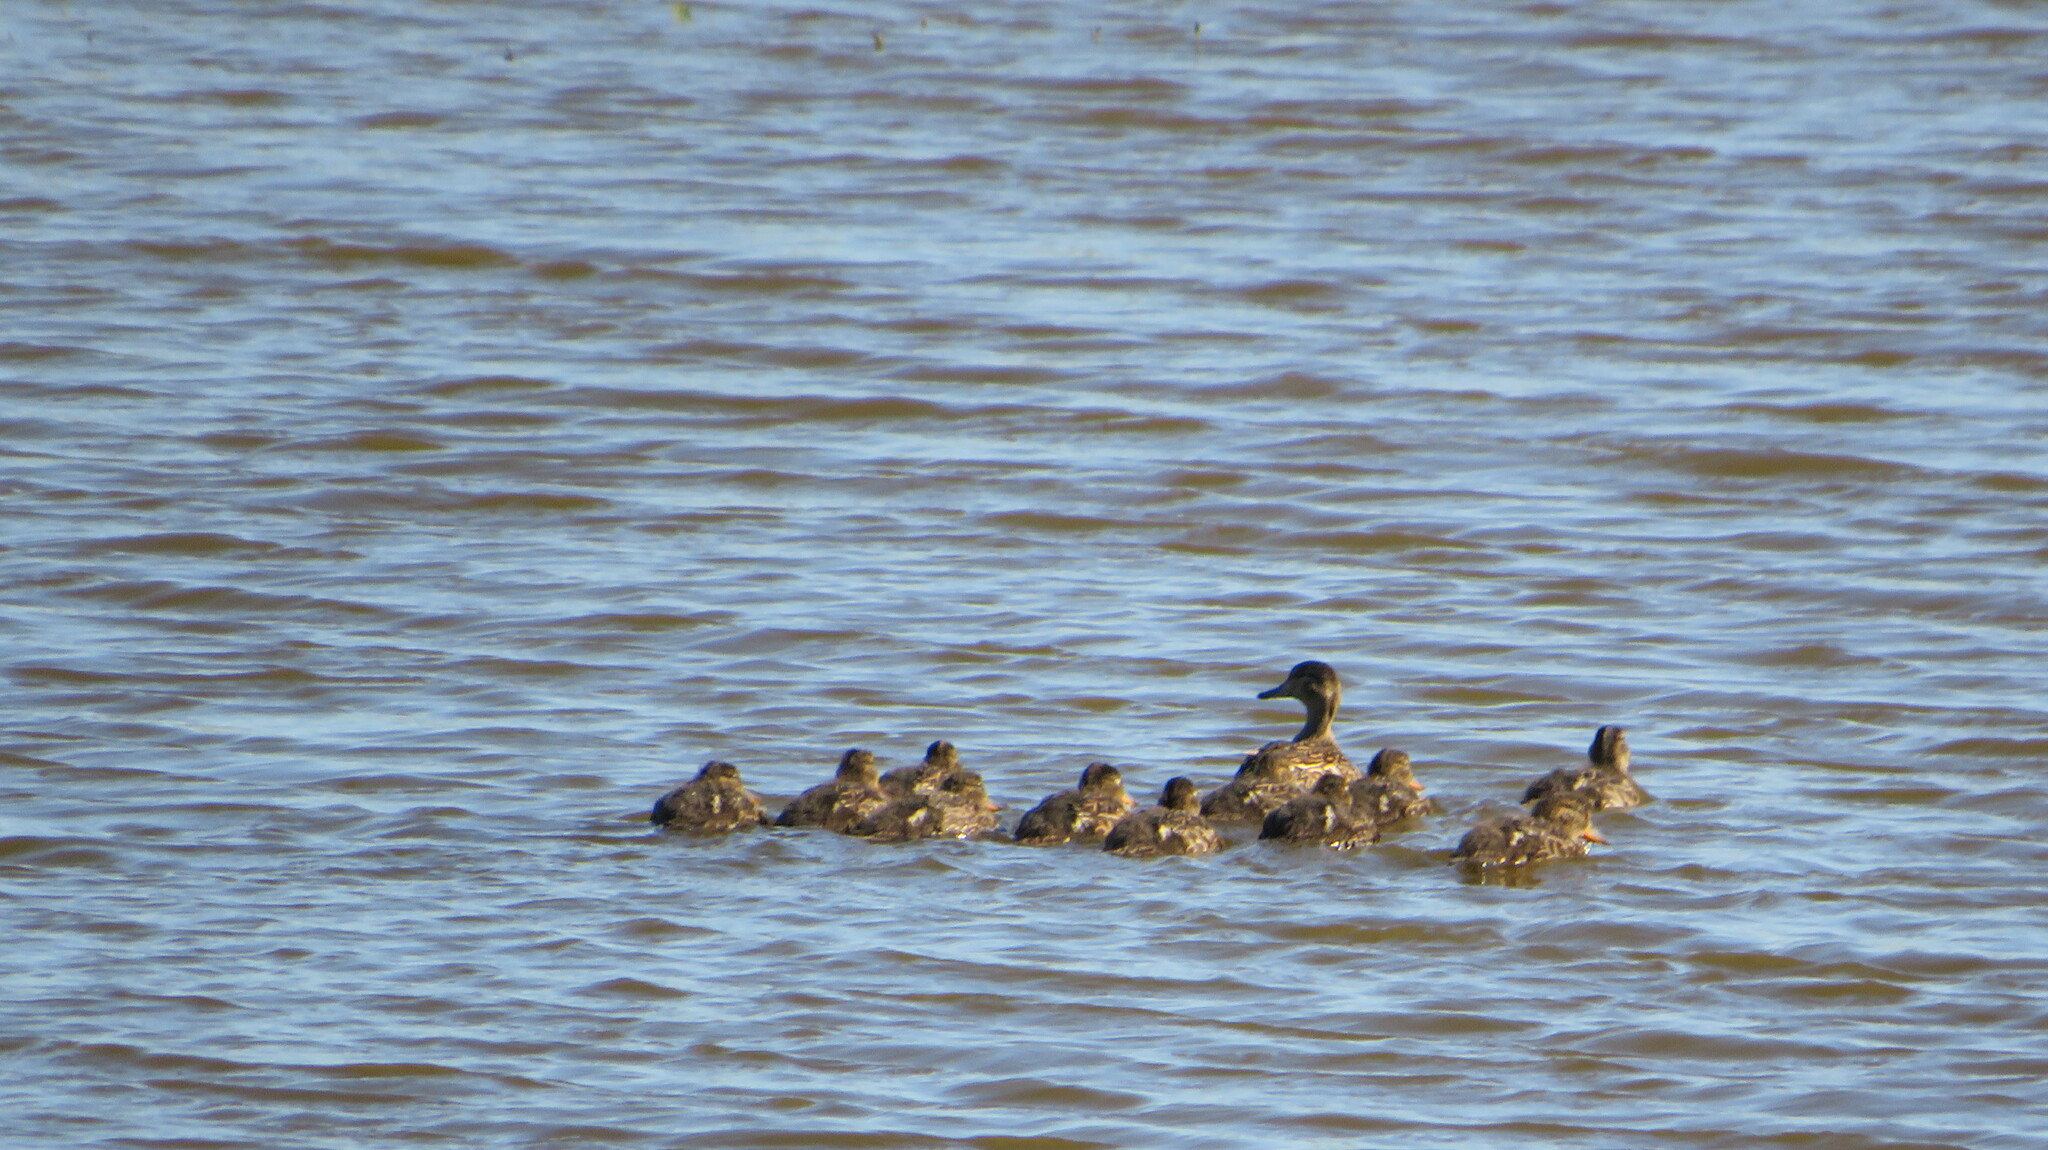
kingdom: Animalia
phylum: Chordata
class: Aves
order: Anseriformes
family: Anatidae
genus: Anas
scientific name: Anas platyrhynchos
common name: Mallard
